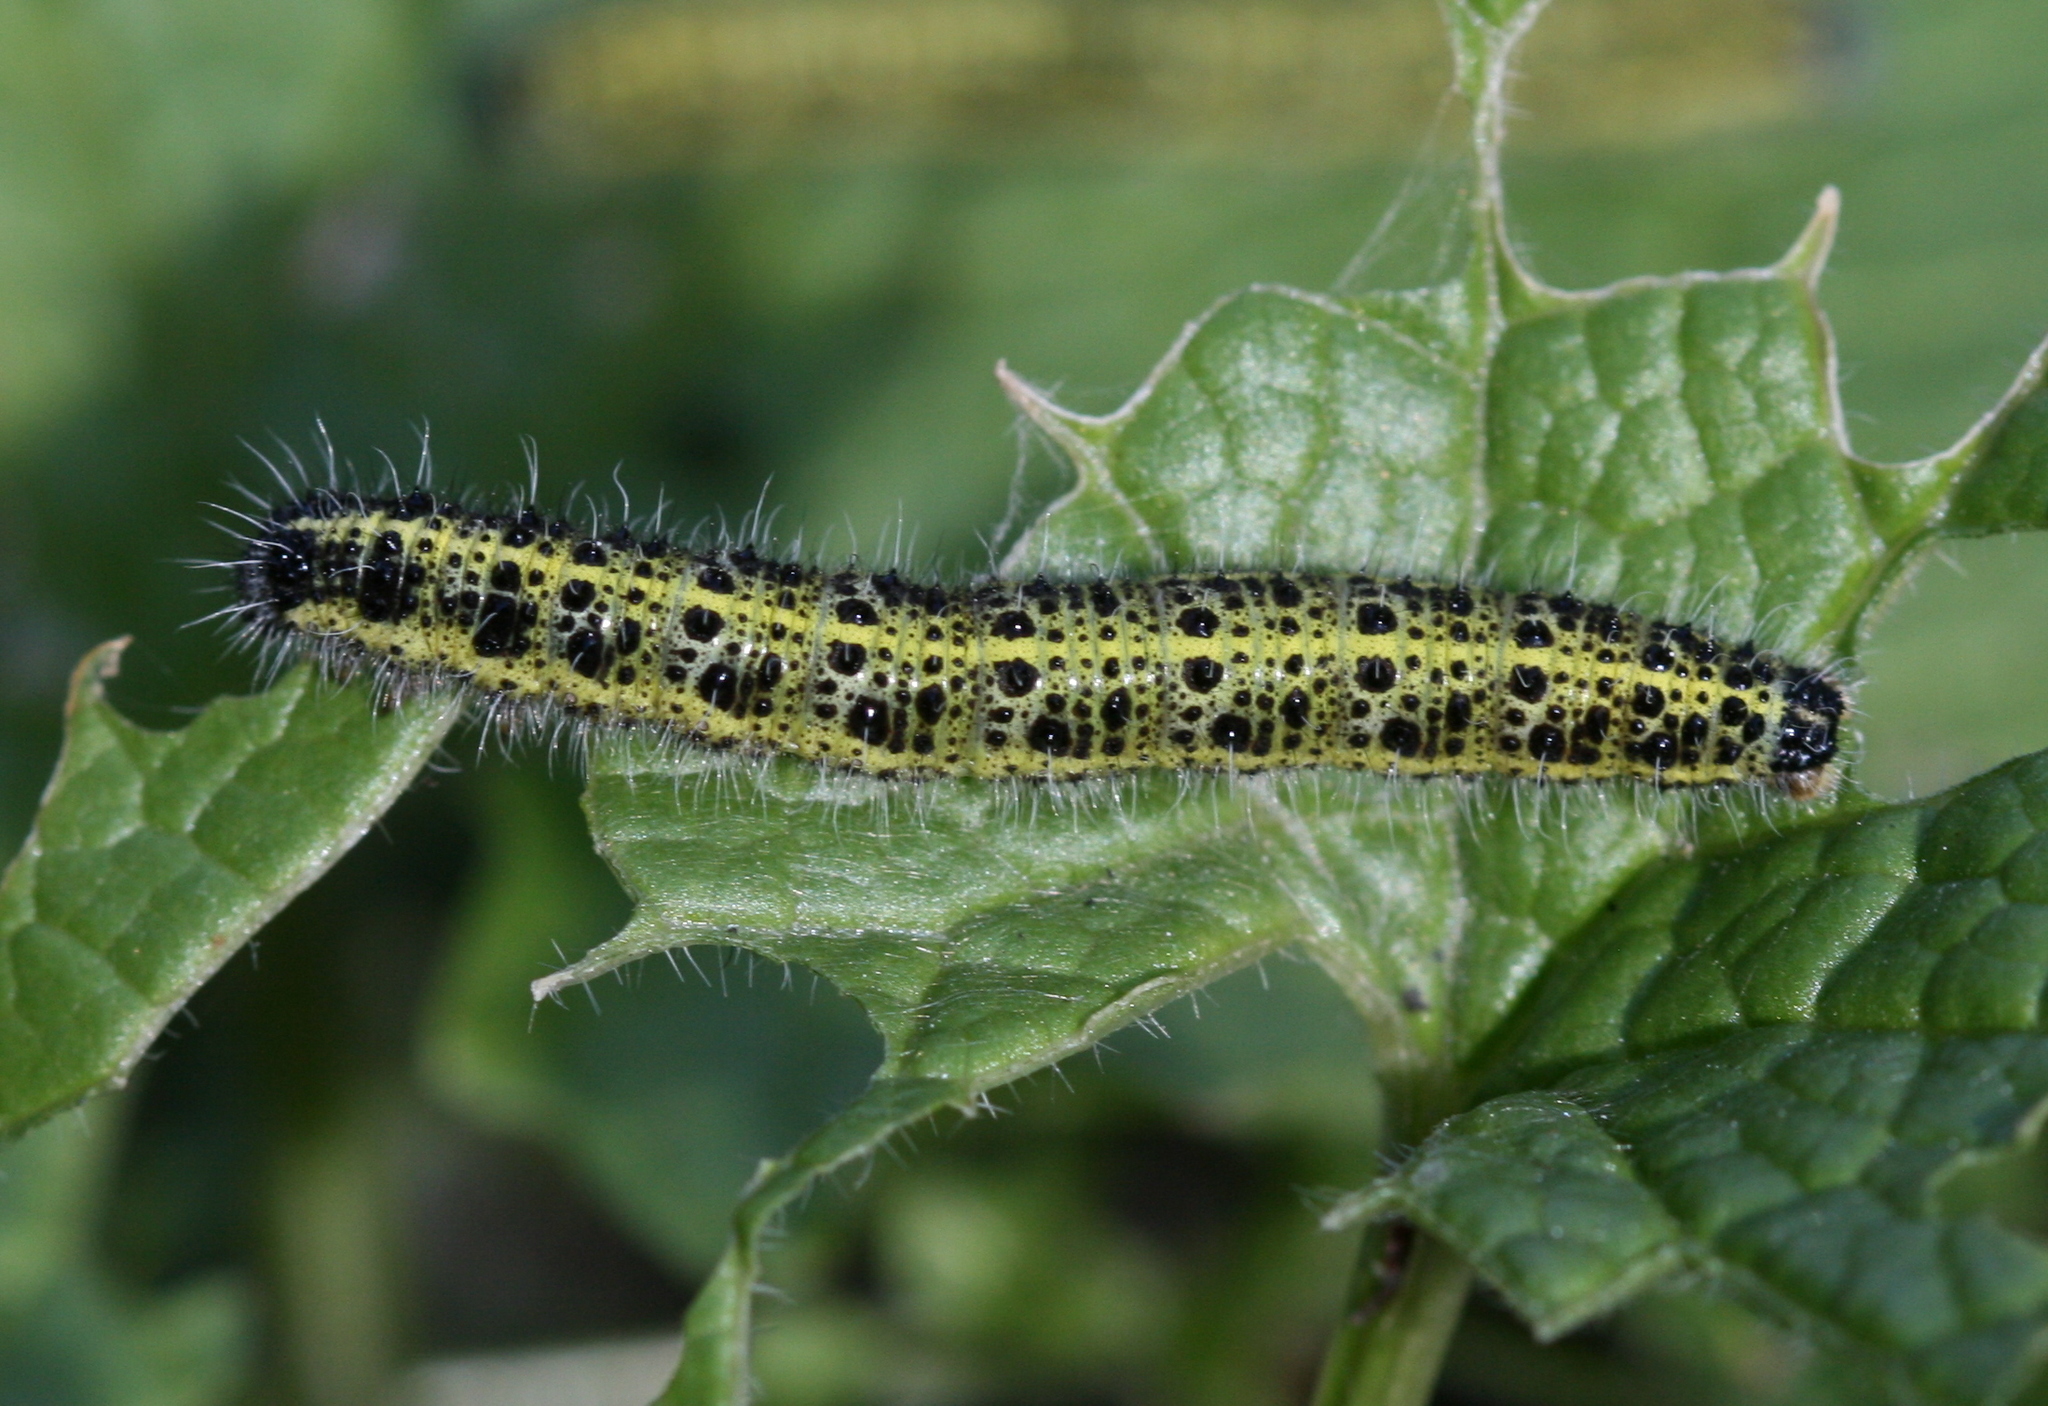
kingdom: Animalia
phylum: Arthropoda
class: Insecta
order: Lepidoptera
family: Pieridae
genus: Pieris
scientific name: Pieris brassicae
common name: Large white
